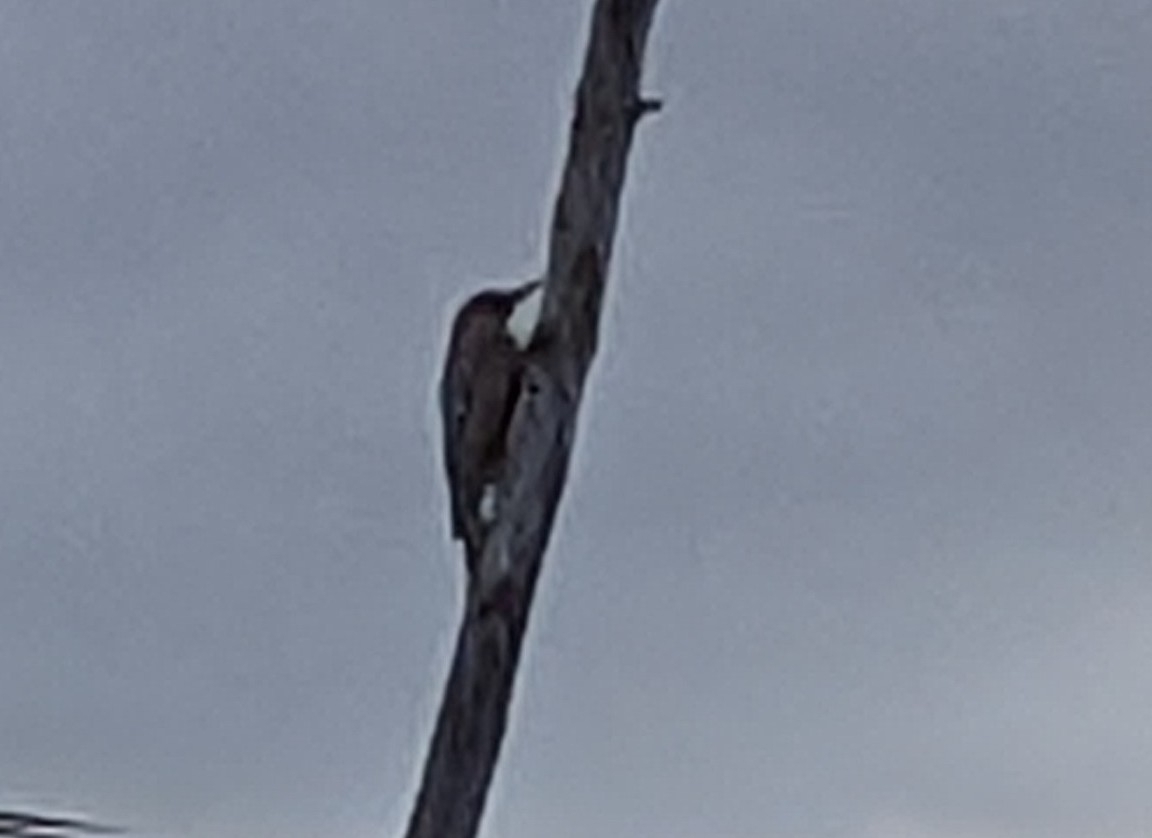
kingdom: Animalia
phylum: Chordata
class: Aves
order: Piciformes
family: Picidae
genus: Melanerpes
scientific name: Melanerpes uropygialis
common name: Gila woodpecker
